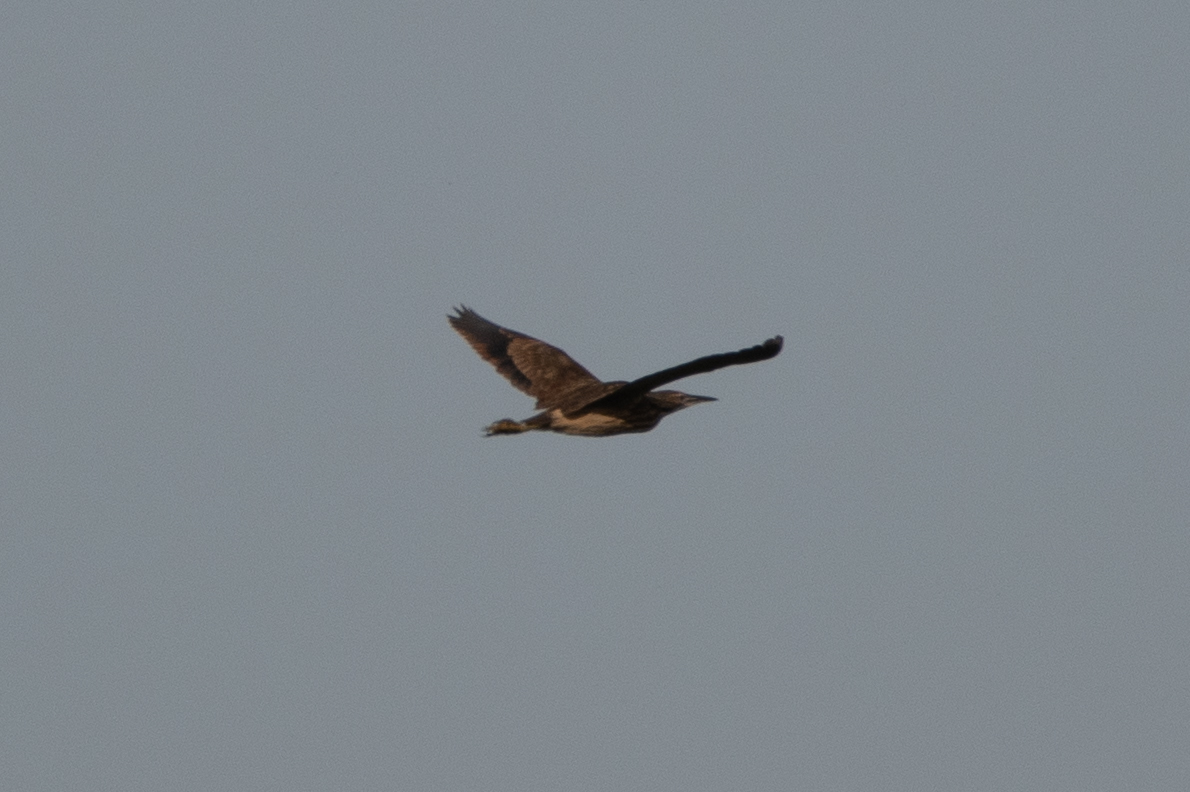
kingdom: Animalia
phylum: Chordata
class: Aves
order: Pelecaniformes
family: Ardeidae
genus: Botaurus
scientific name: Botaurus lentiginosus
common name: American bittern
